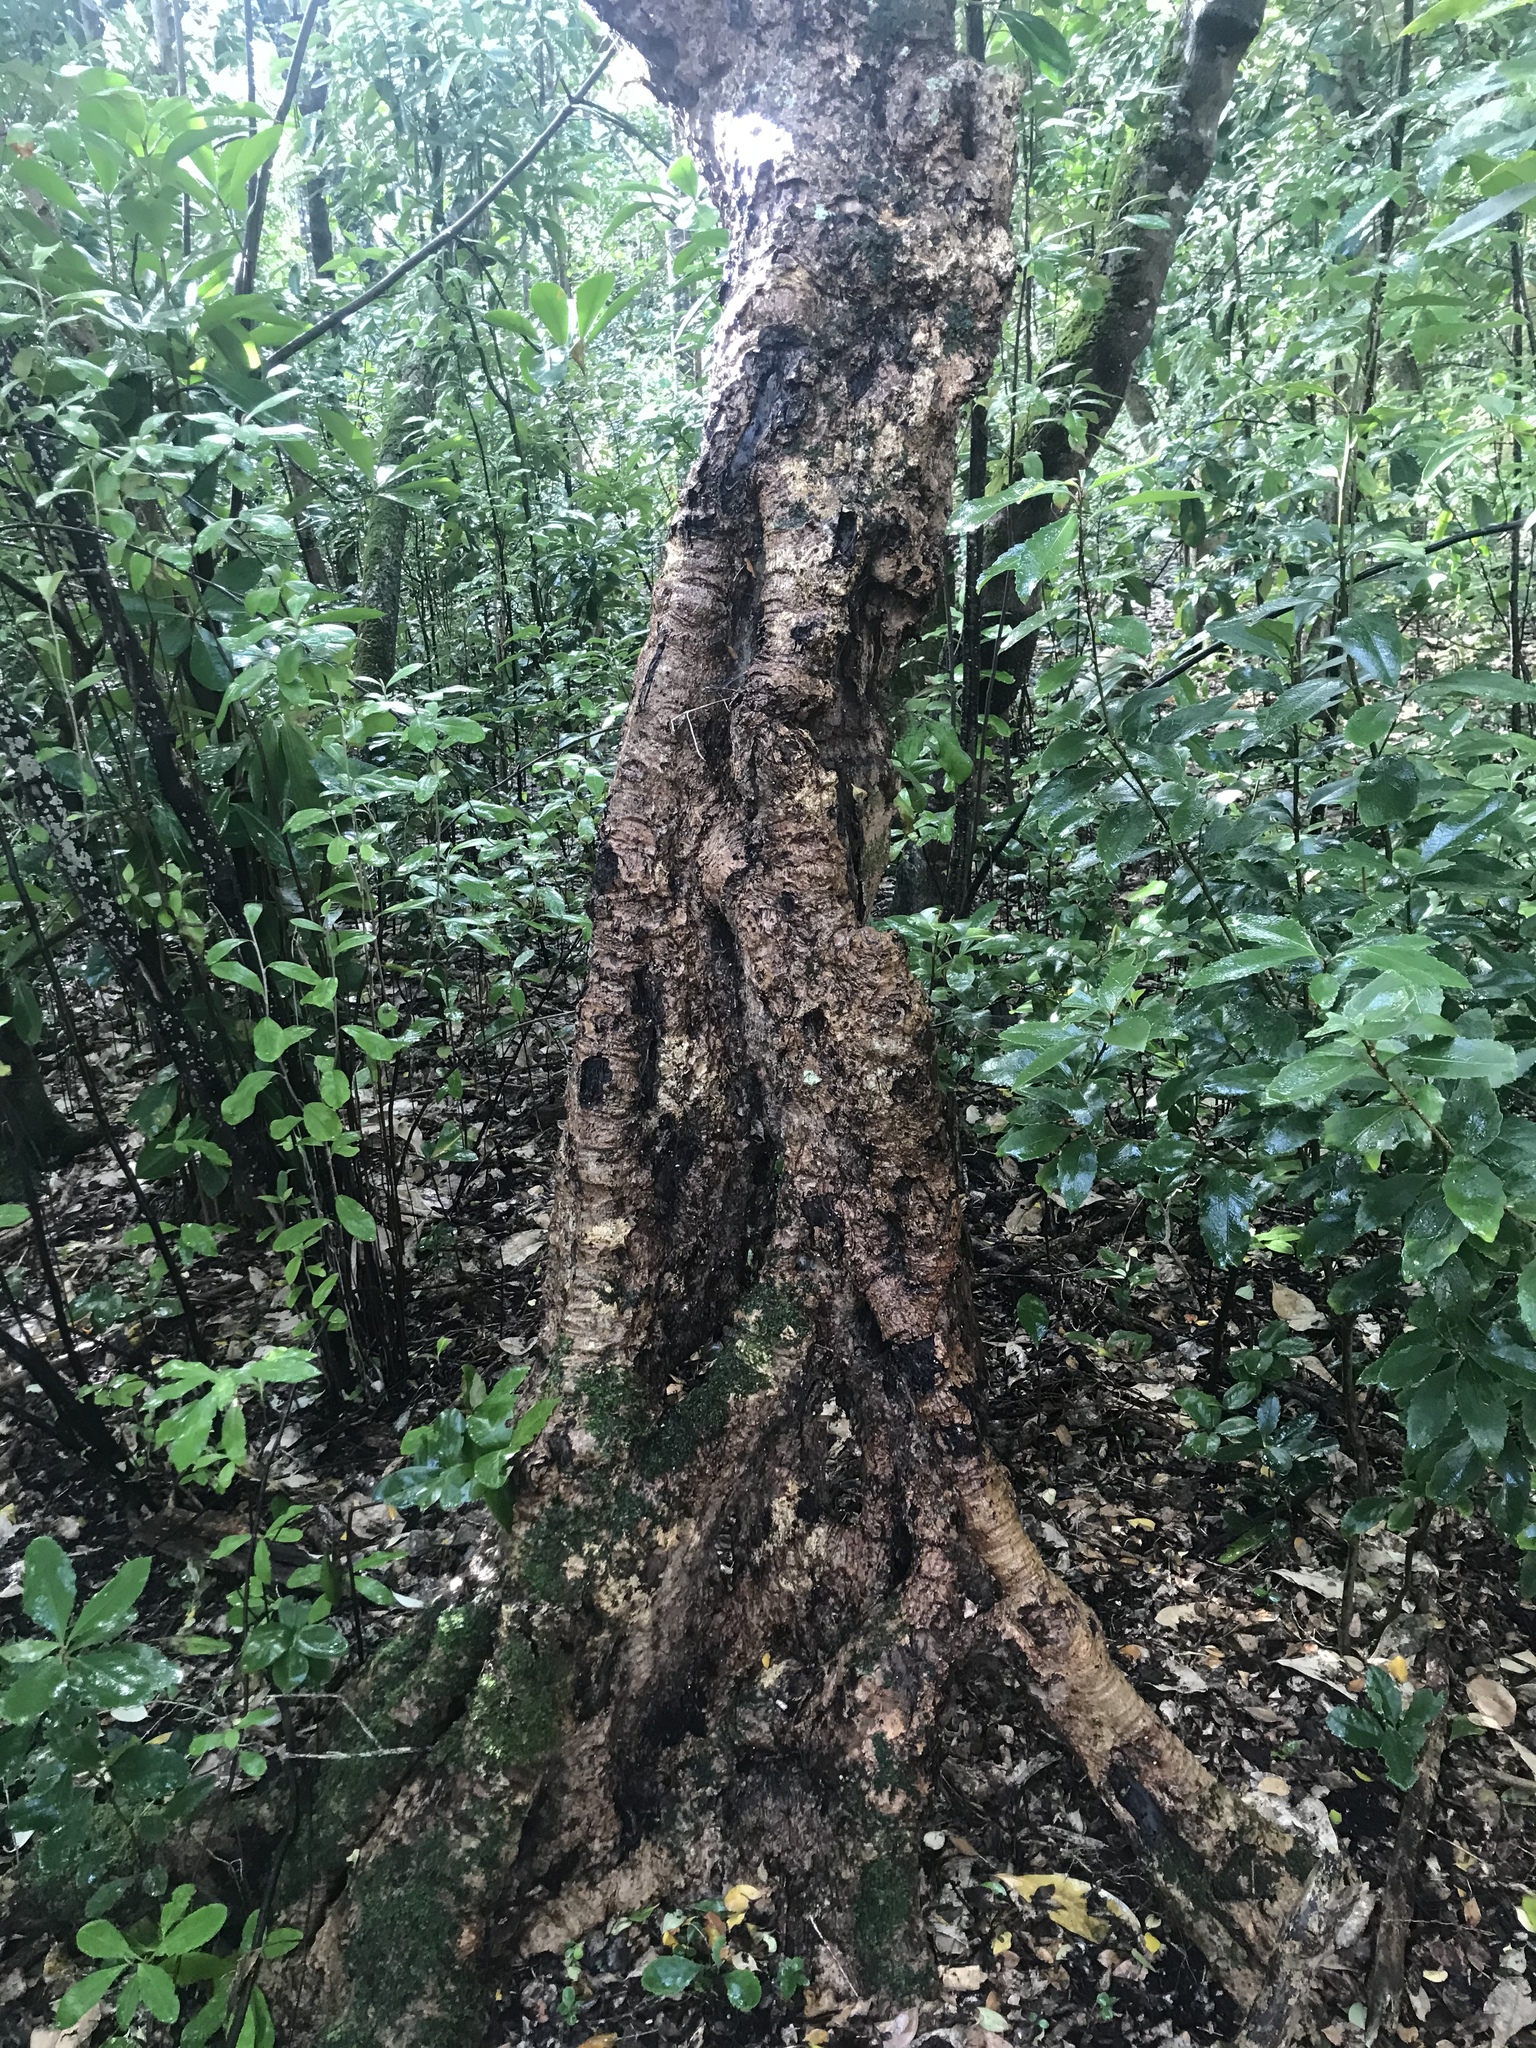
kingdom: Plantae
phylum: Tracheophyta
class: Magnoliopsida
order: Gentianales
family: Rubiaceae
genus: Coprosma
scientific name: Coprosma chathamica
